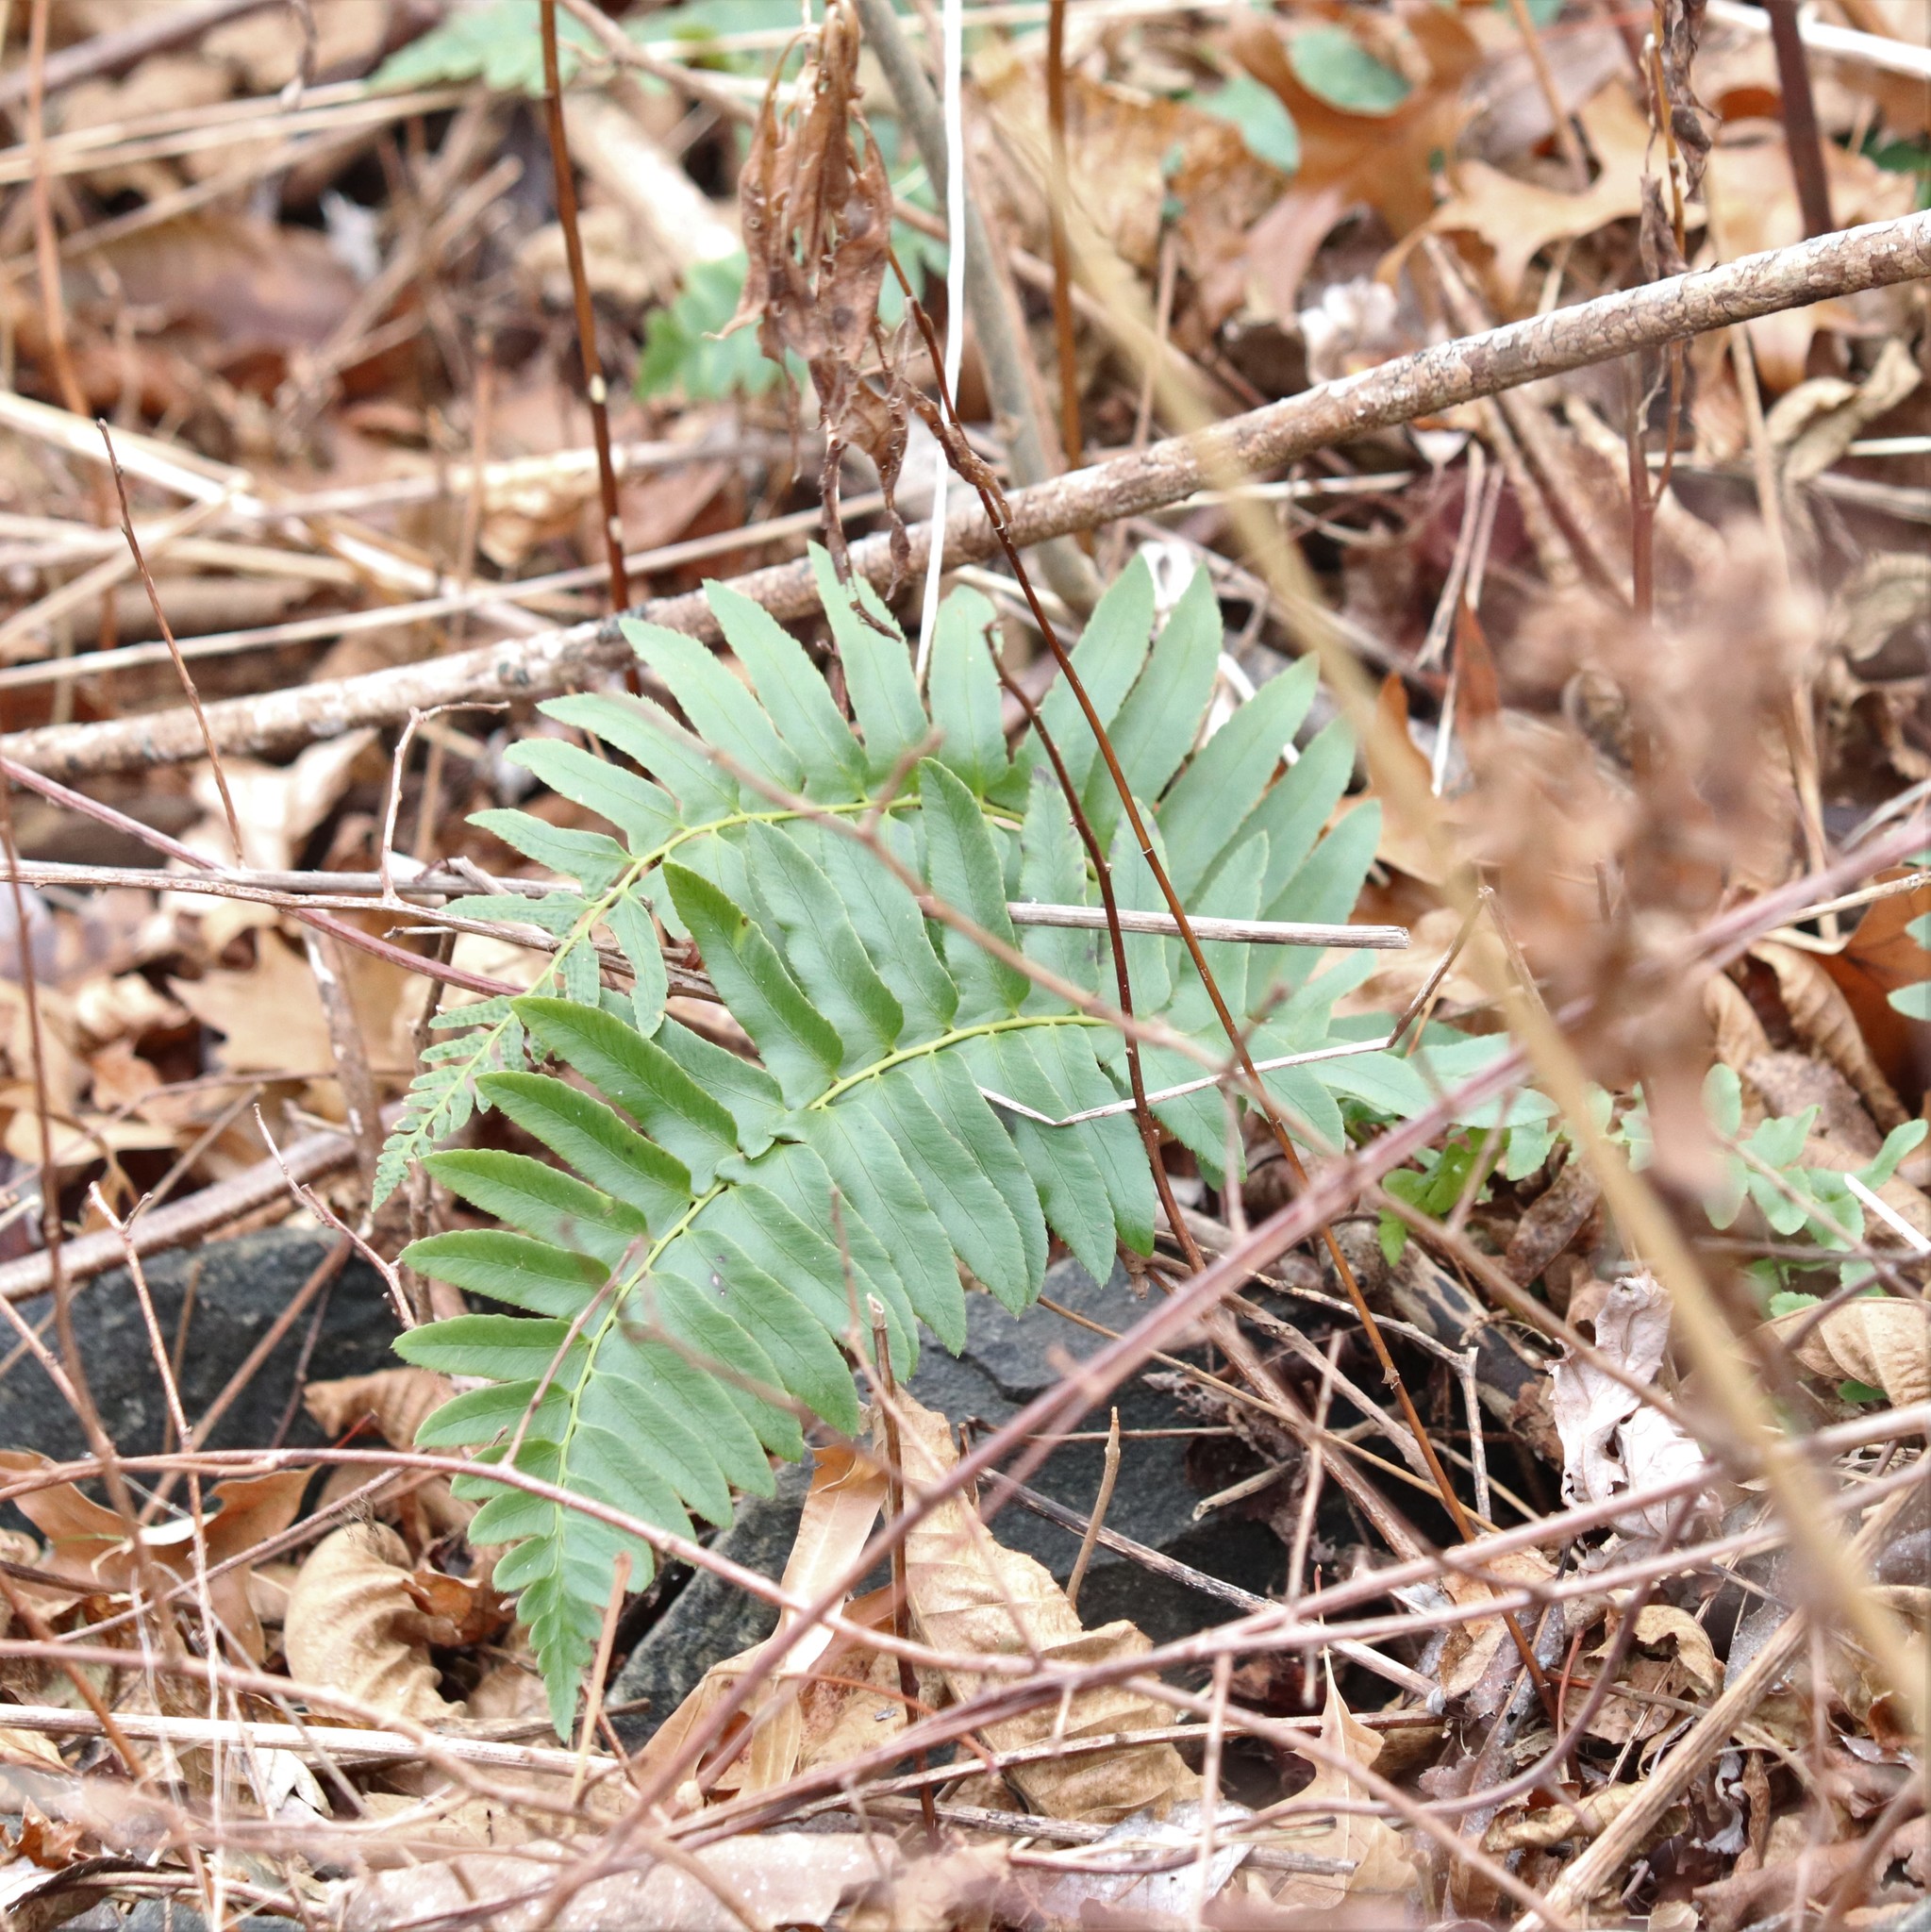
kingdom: Plantae
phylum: Tracheophyta
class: Polypodiopsida
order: Polypodiales
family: Dryopteridaceae
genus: Polystichum
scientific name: Polystichum acrostichoides
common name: Christmas fern
